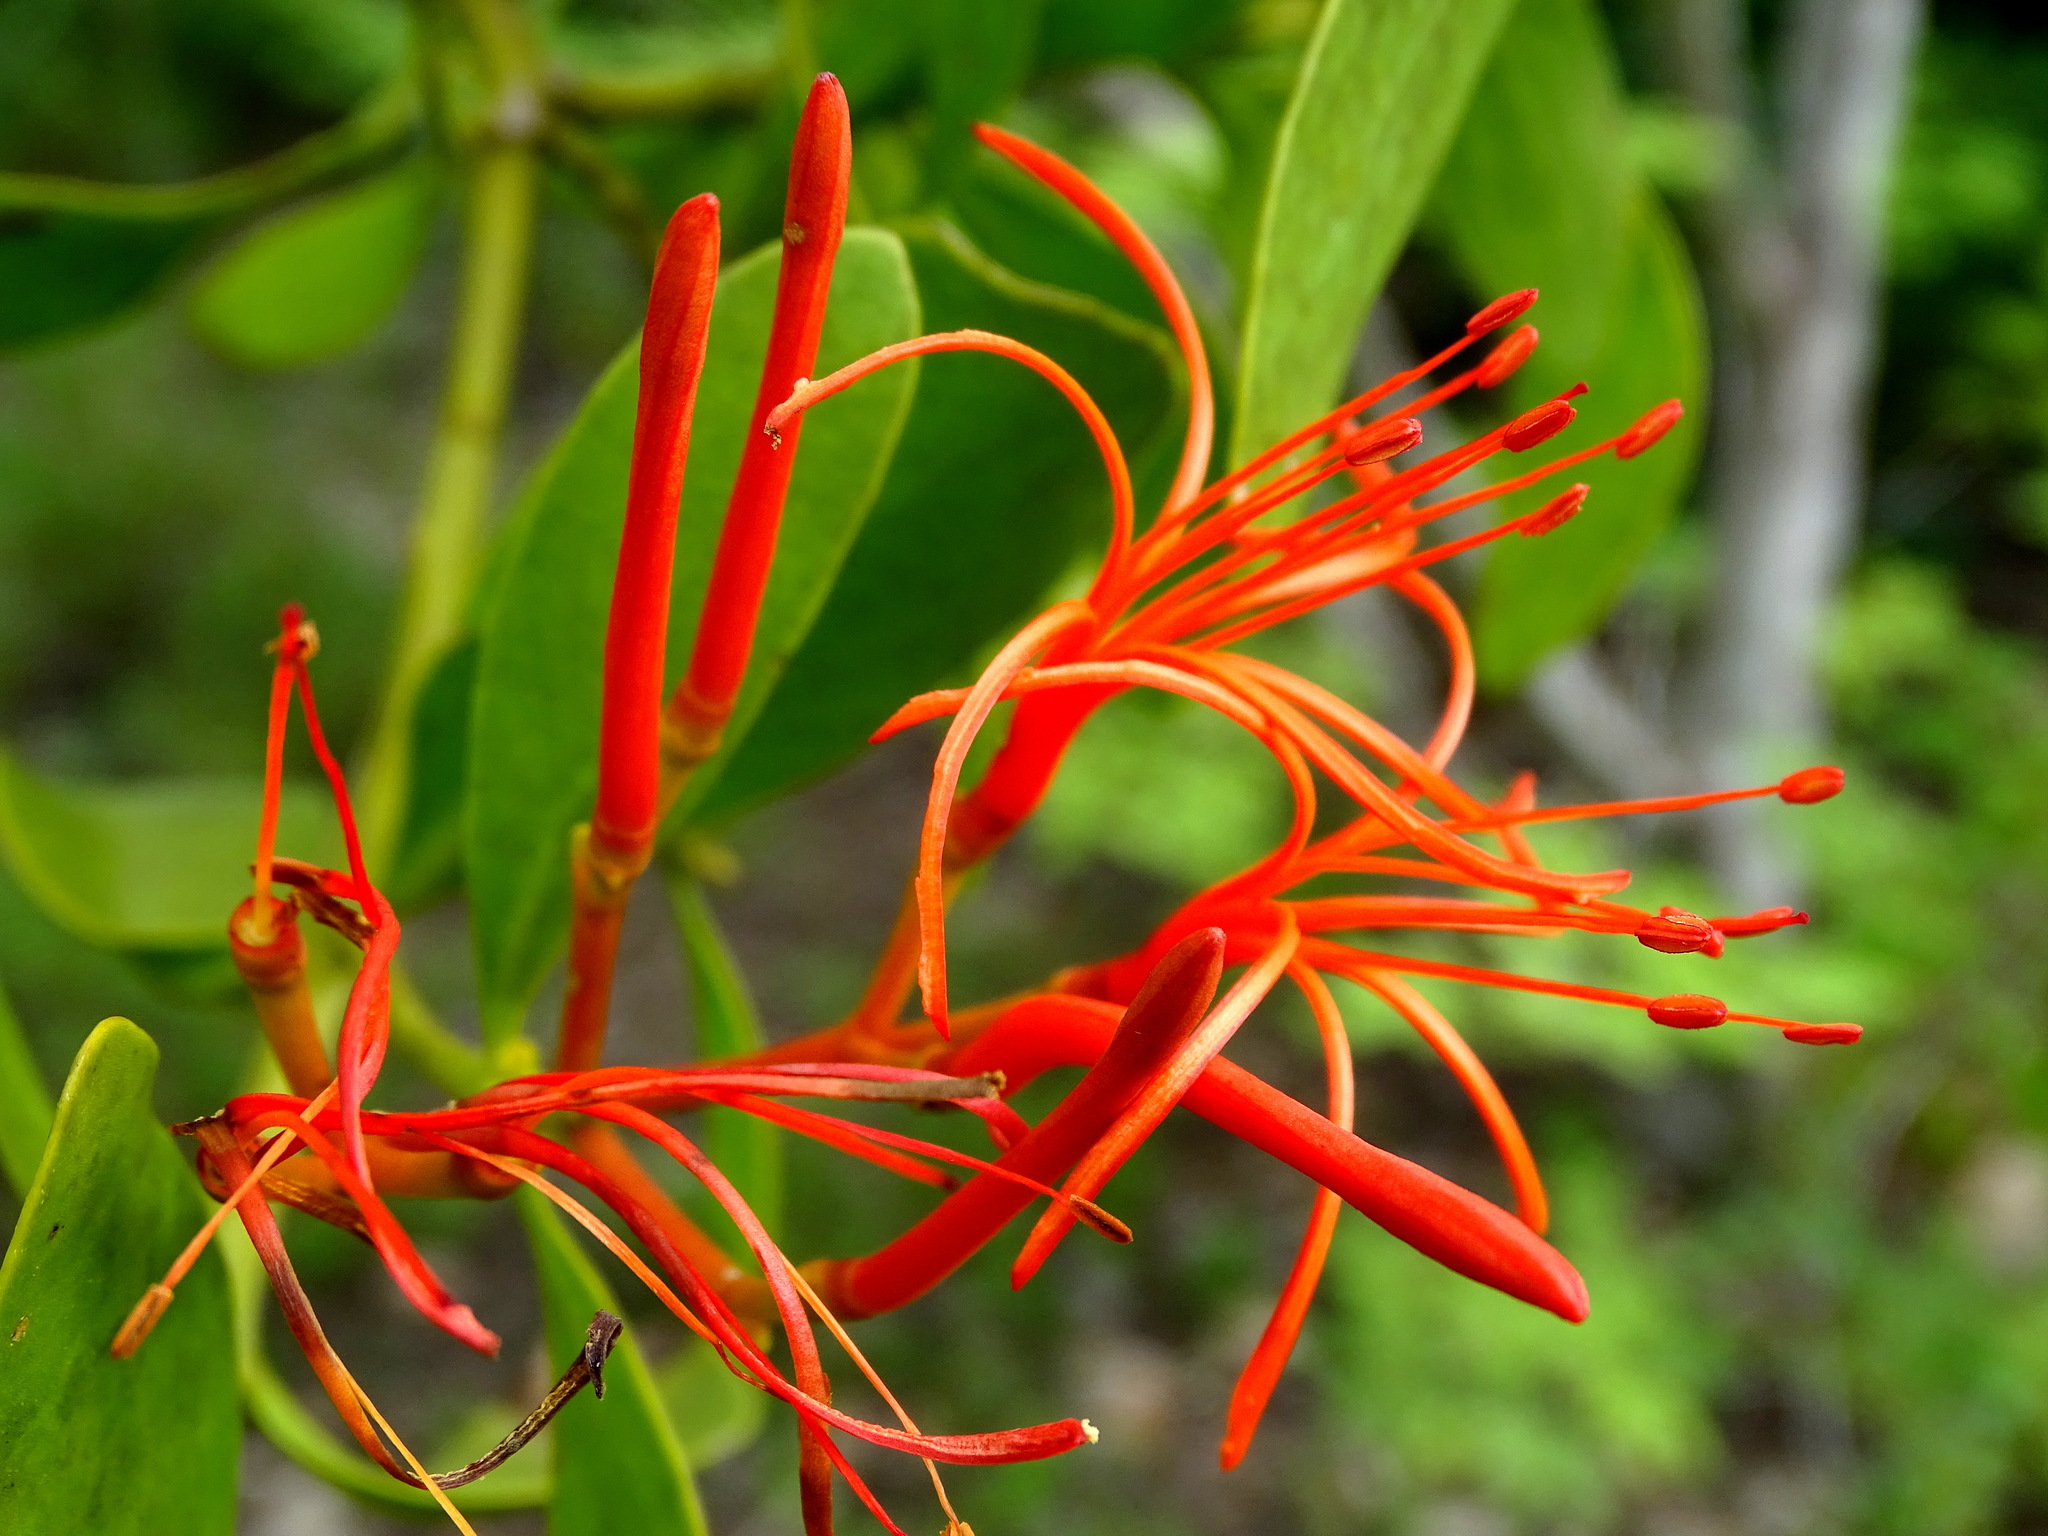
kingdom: Plantae
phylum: Tracheophyta
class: Magnoliopsida
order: Santalales
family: Loranthaceae
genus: Psittacanthus
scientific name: Psittacanthus mayanus
